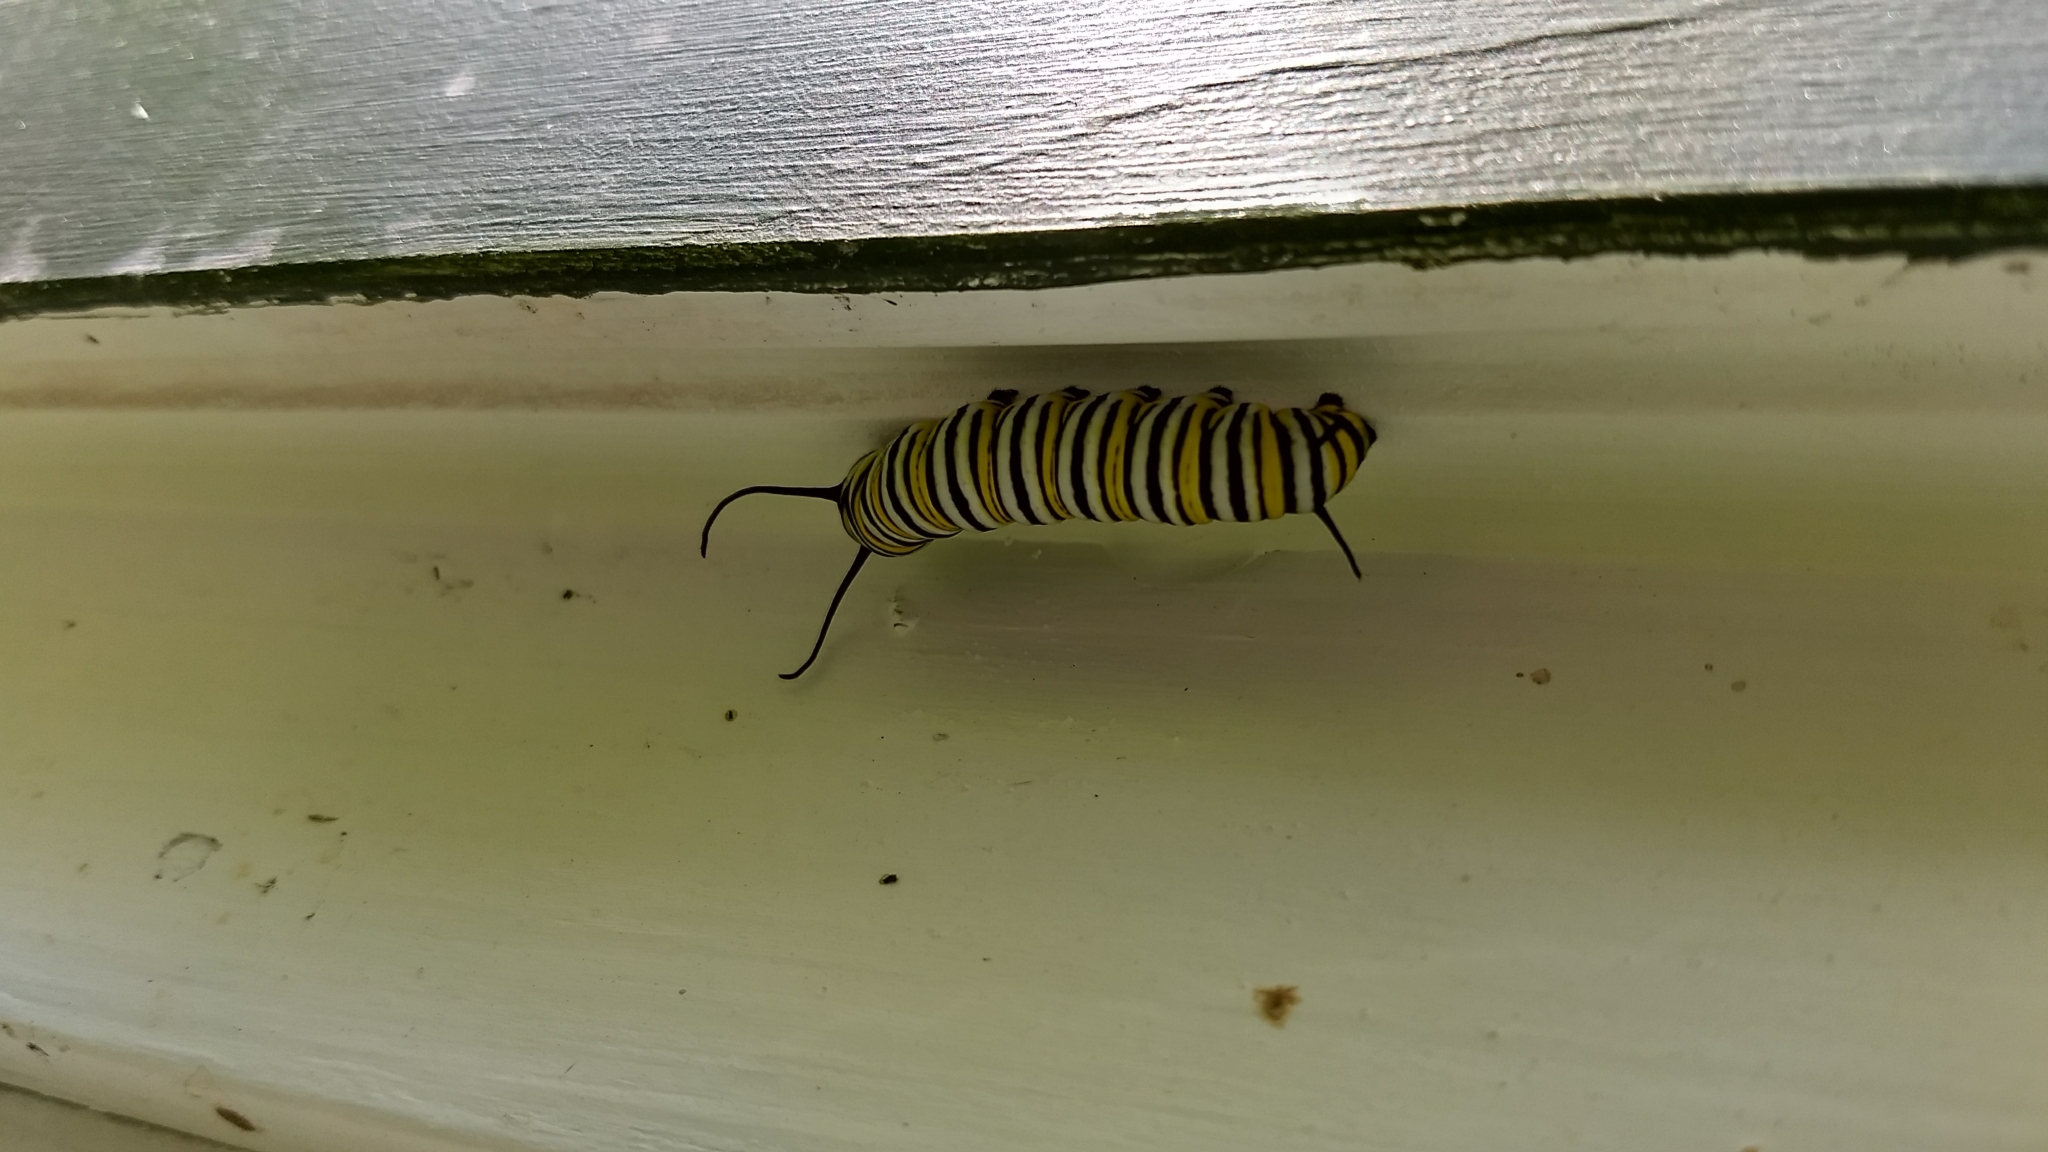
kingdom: Animalia
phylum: Arthropoda
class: Insecta
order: Lepidoptera
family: Nymphalidae
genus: Danaus
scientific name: Danaus plexippus
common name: Monarch
